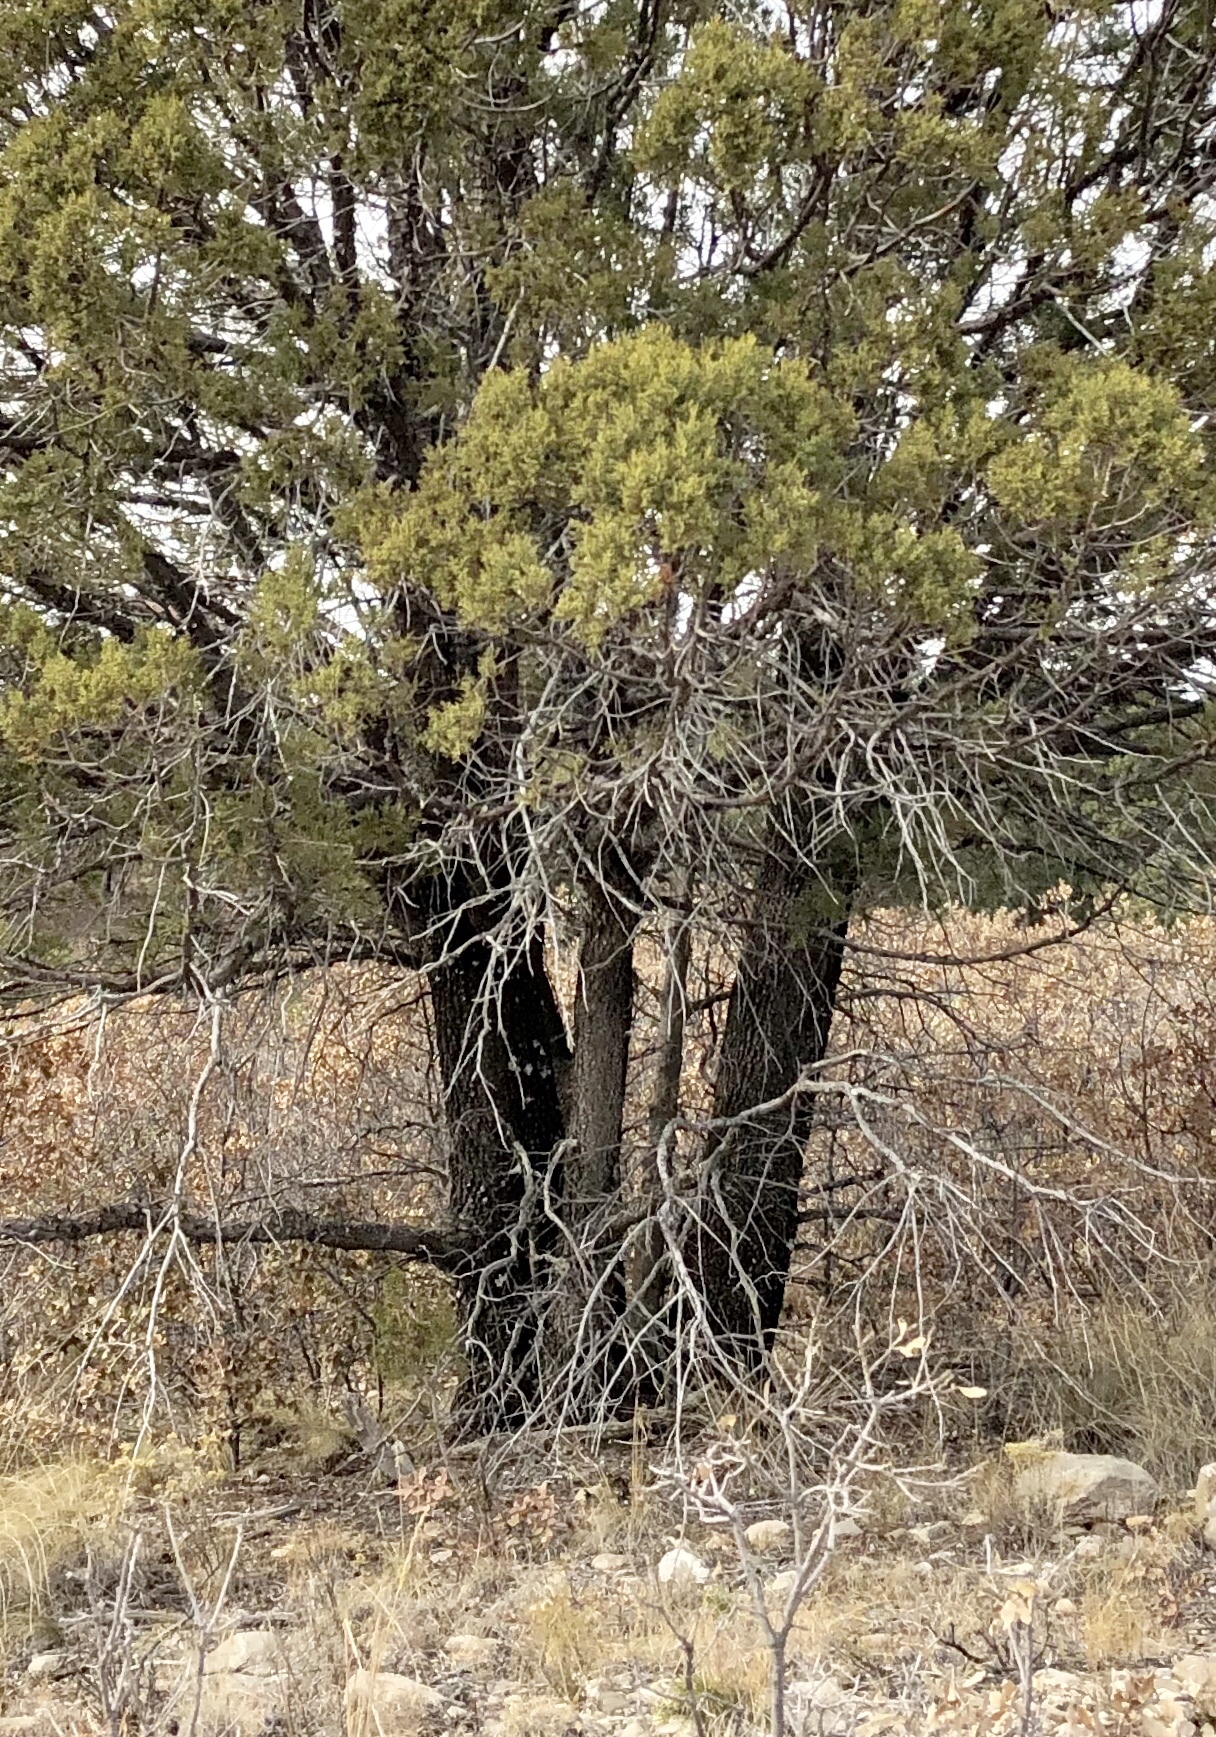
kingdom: Plantae
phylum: Tracheophyta
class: Pinopsida
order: Pinales
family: Cupressaceae
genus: Juniperus
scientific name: Juniperus deppeana
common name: Alligator juniper
